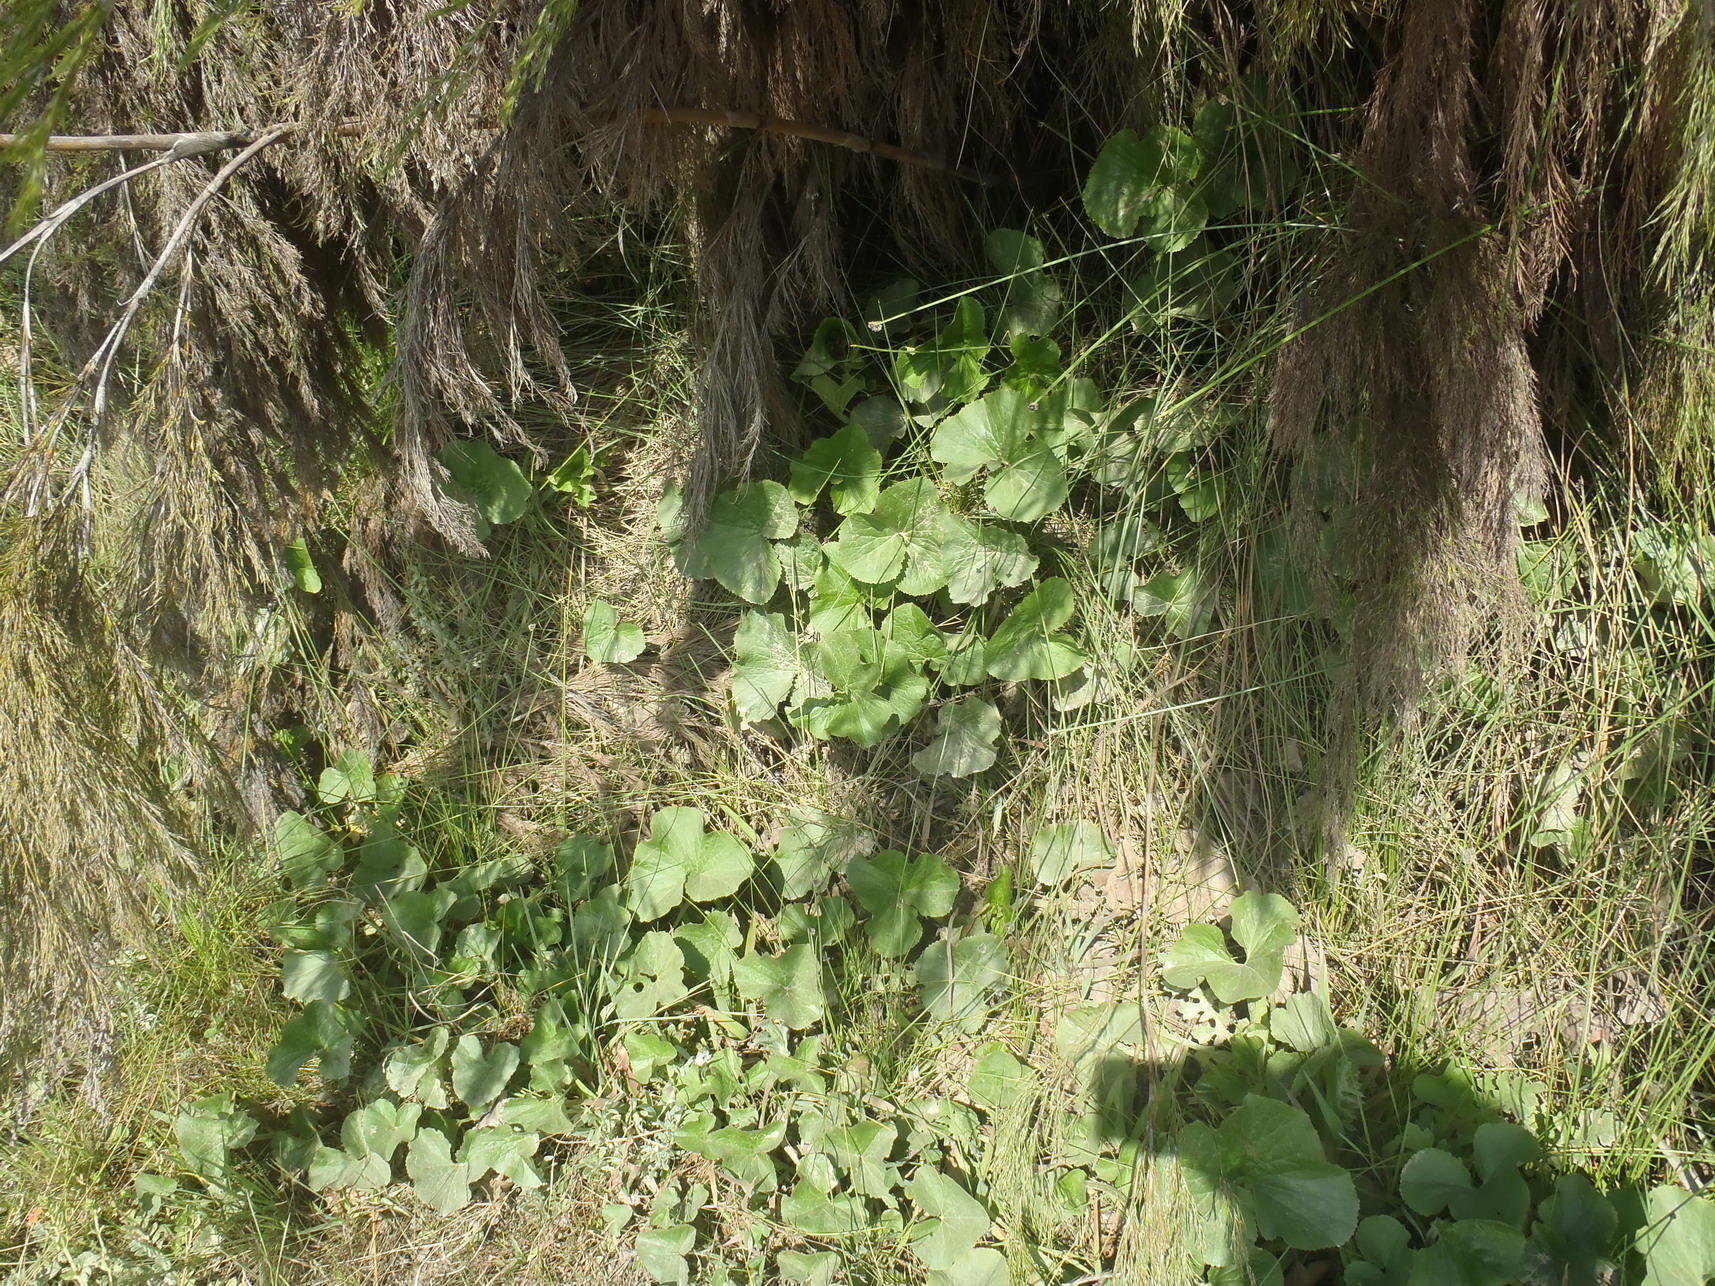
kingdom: Plantae
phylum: Tracheophyta
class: Magnoliopsida
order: Gunnerales
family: Gunneraceae
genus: Gunnera
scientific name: Gunnera perpensa
